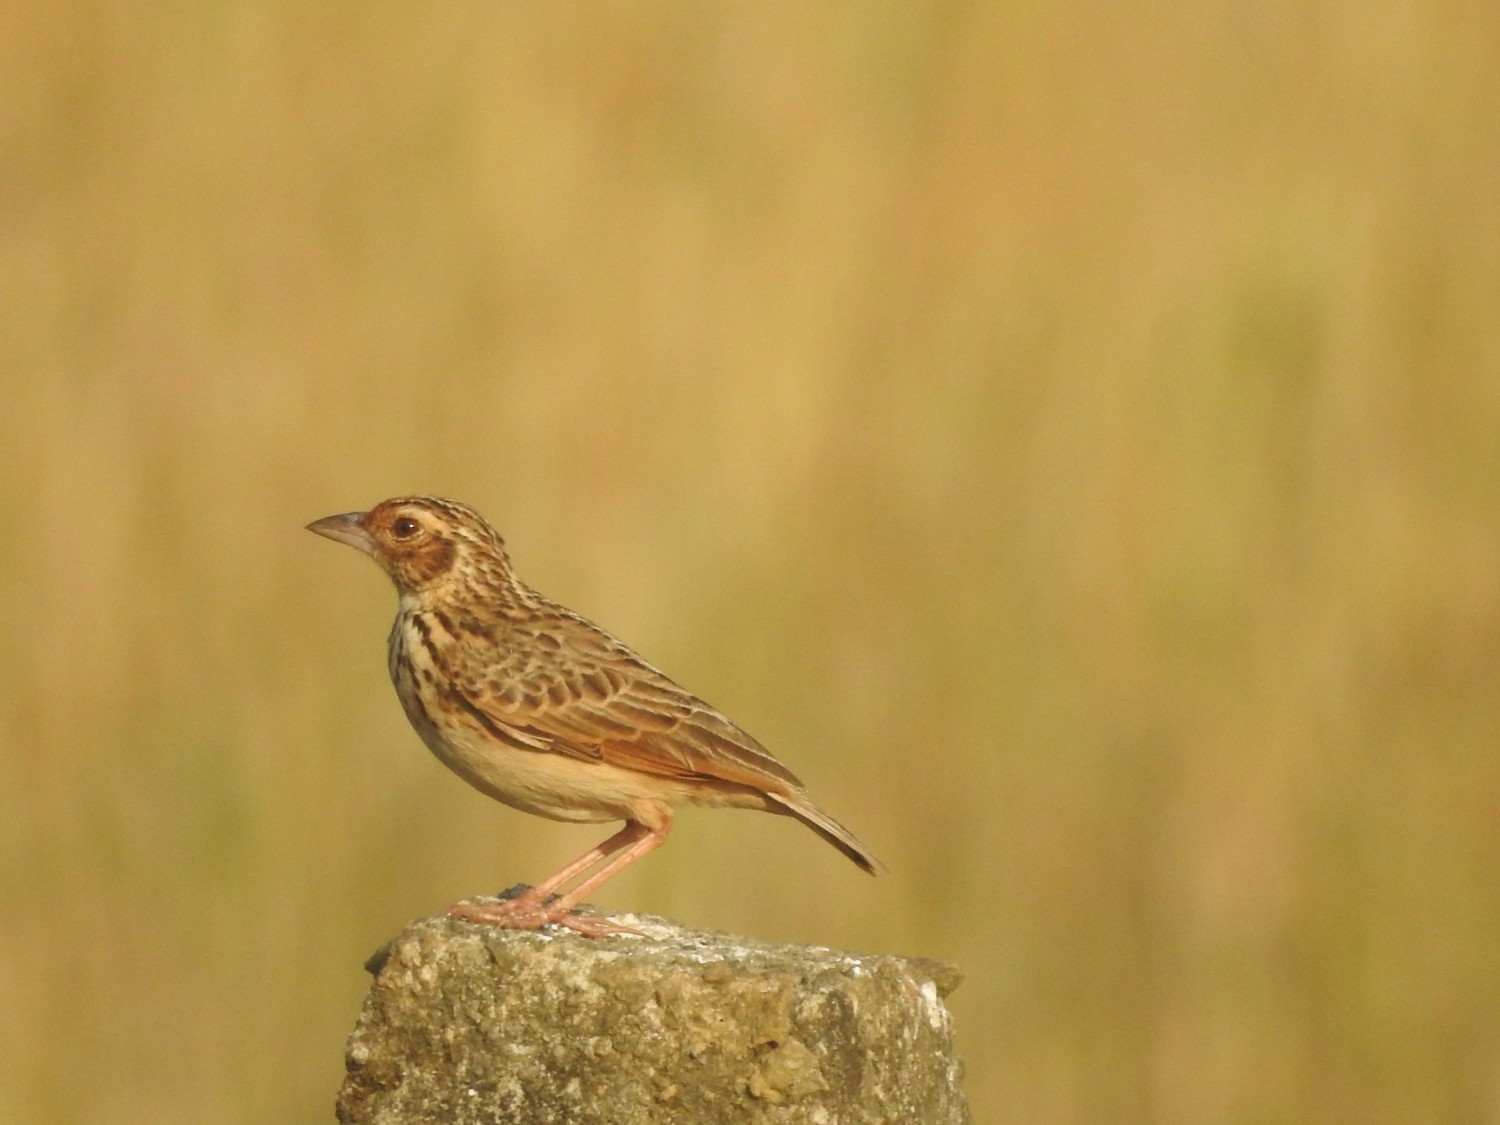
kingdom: Animalia
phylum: Chordata
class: Aves
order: Passeriformes
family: Alaudidae
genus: Mirafra
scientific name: Mirafra affinis
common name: Jerdon's bushlark
